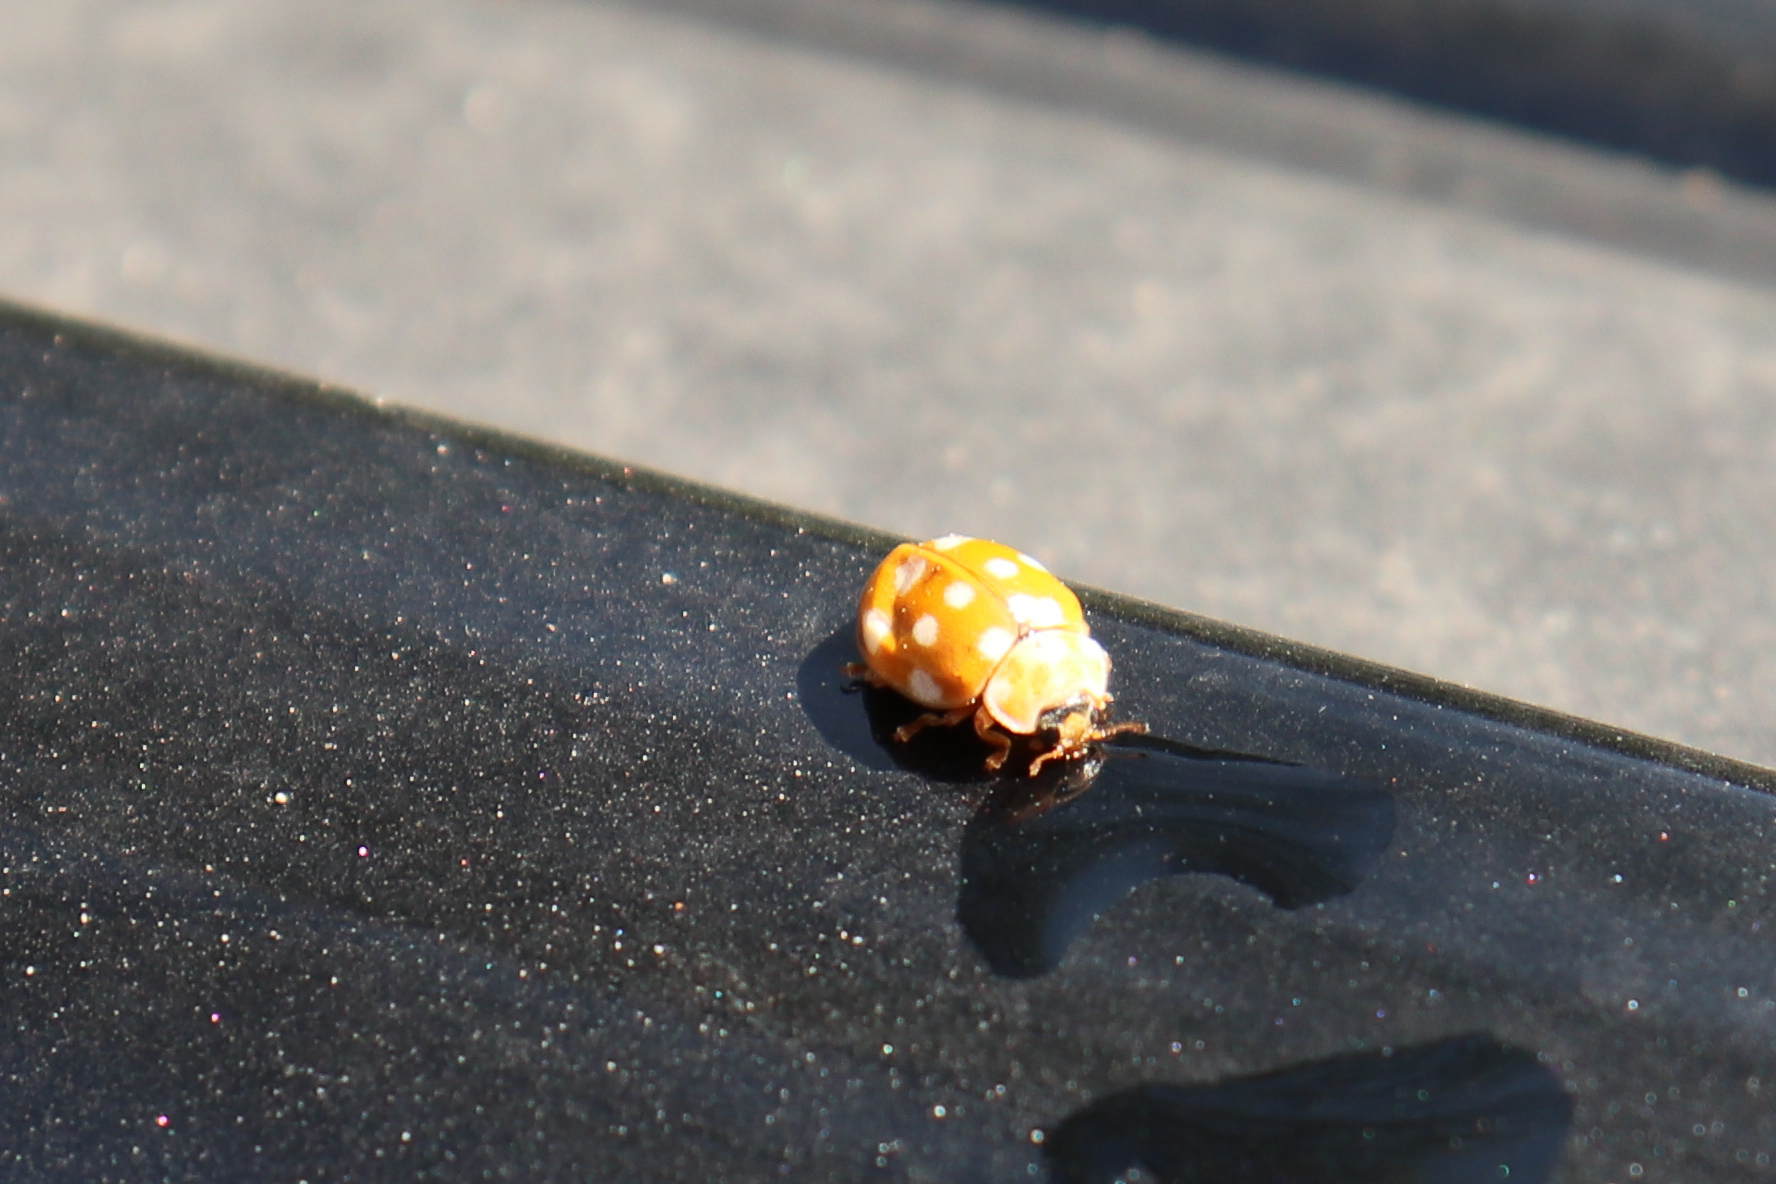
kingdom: Animalia
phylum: Arthropoda
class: Insecta
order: Coleoptera
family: Coccinellidae
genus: Calvia
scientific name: Calvia quatuordecimguttata
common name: Cream-spot ladybird
